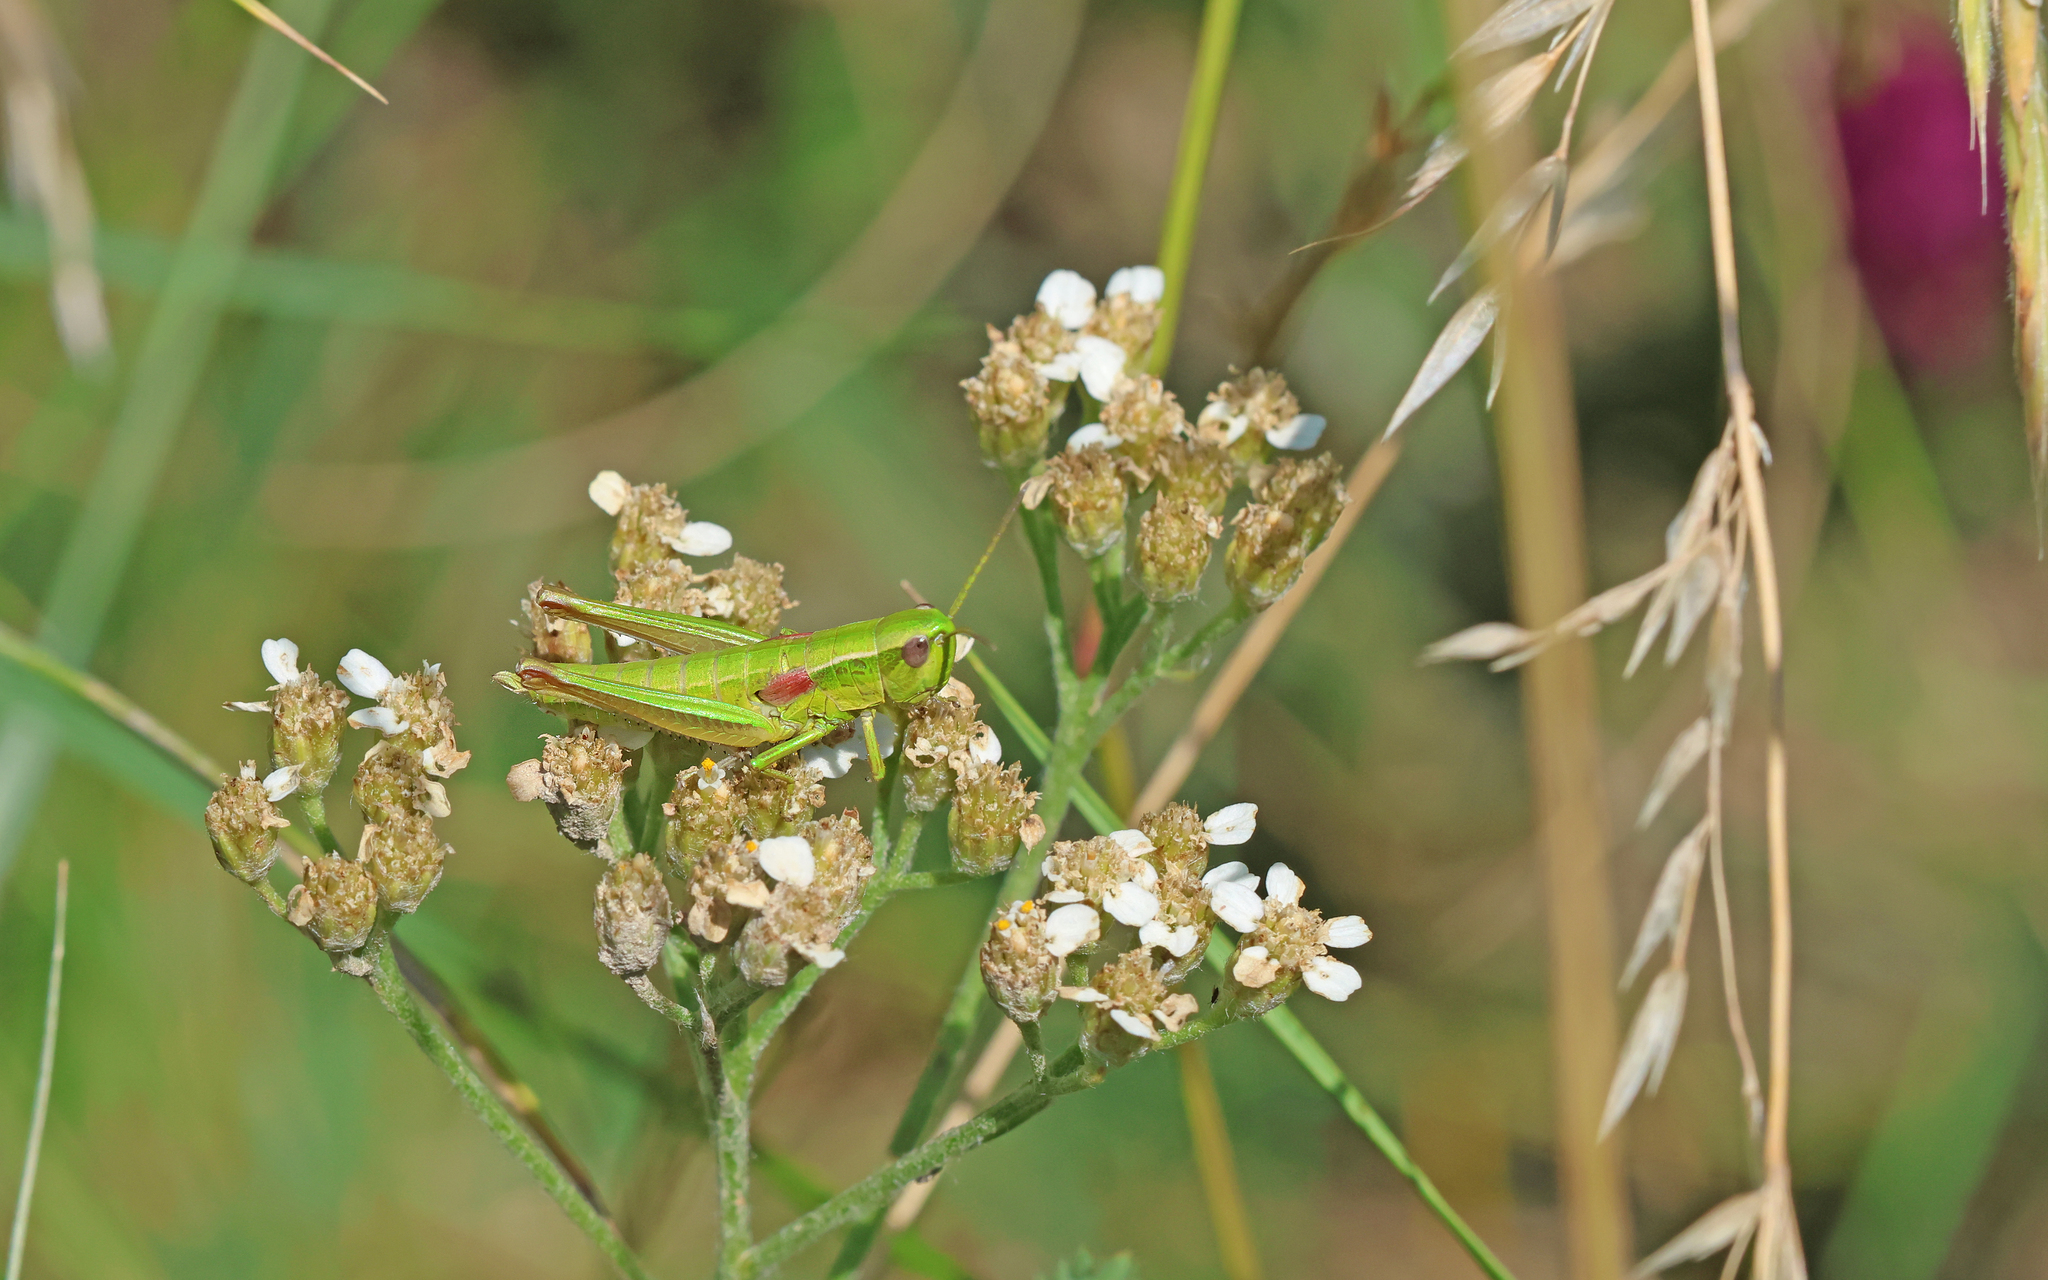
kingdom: Animalia
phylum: Arthropoda
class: Insecta
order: Orthoptera
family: Acrididae
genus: Euthystira
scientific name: Euthystira brachyptera
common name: Small gold grasshopper
